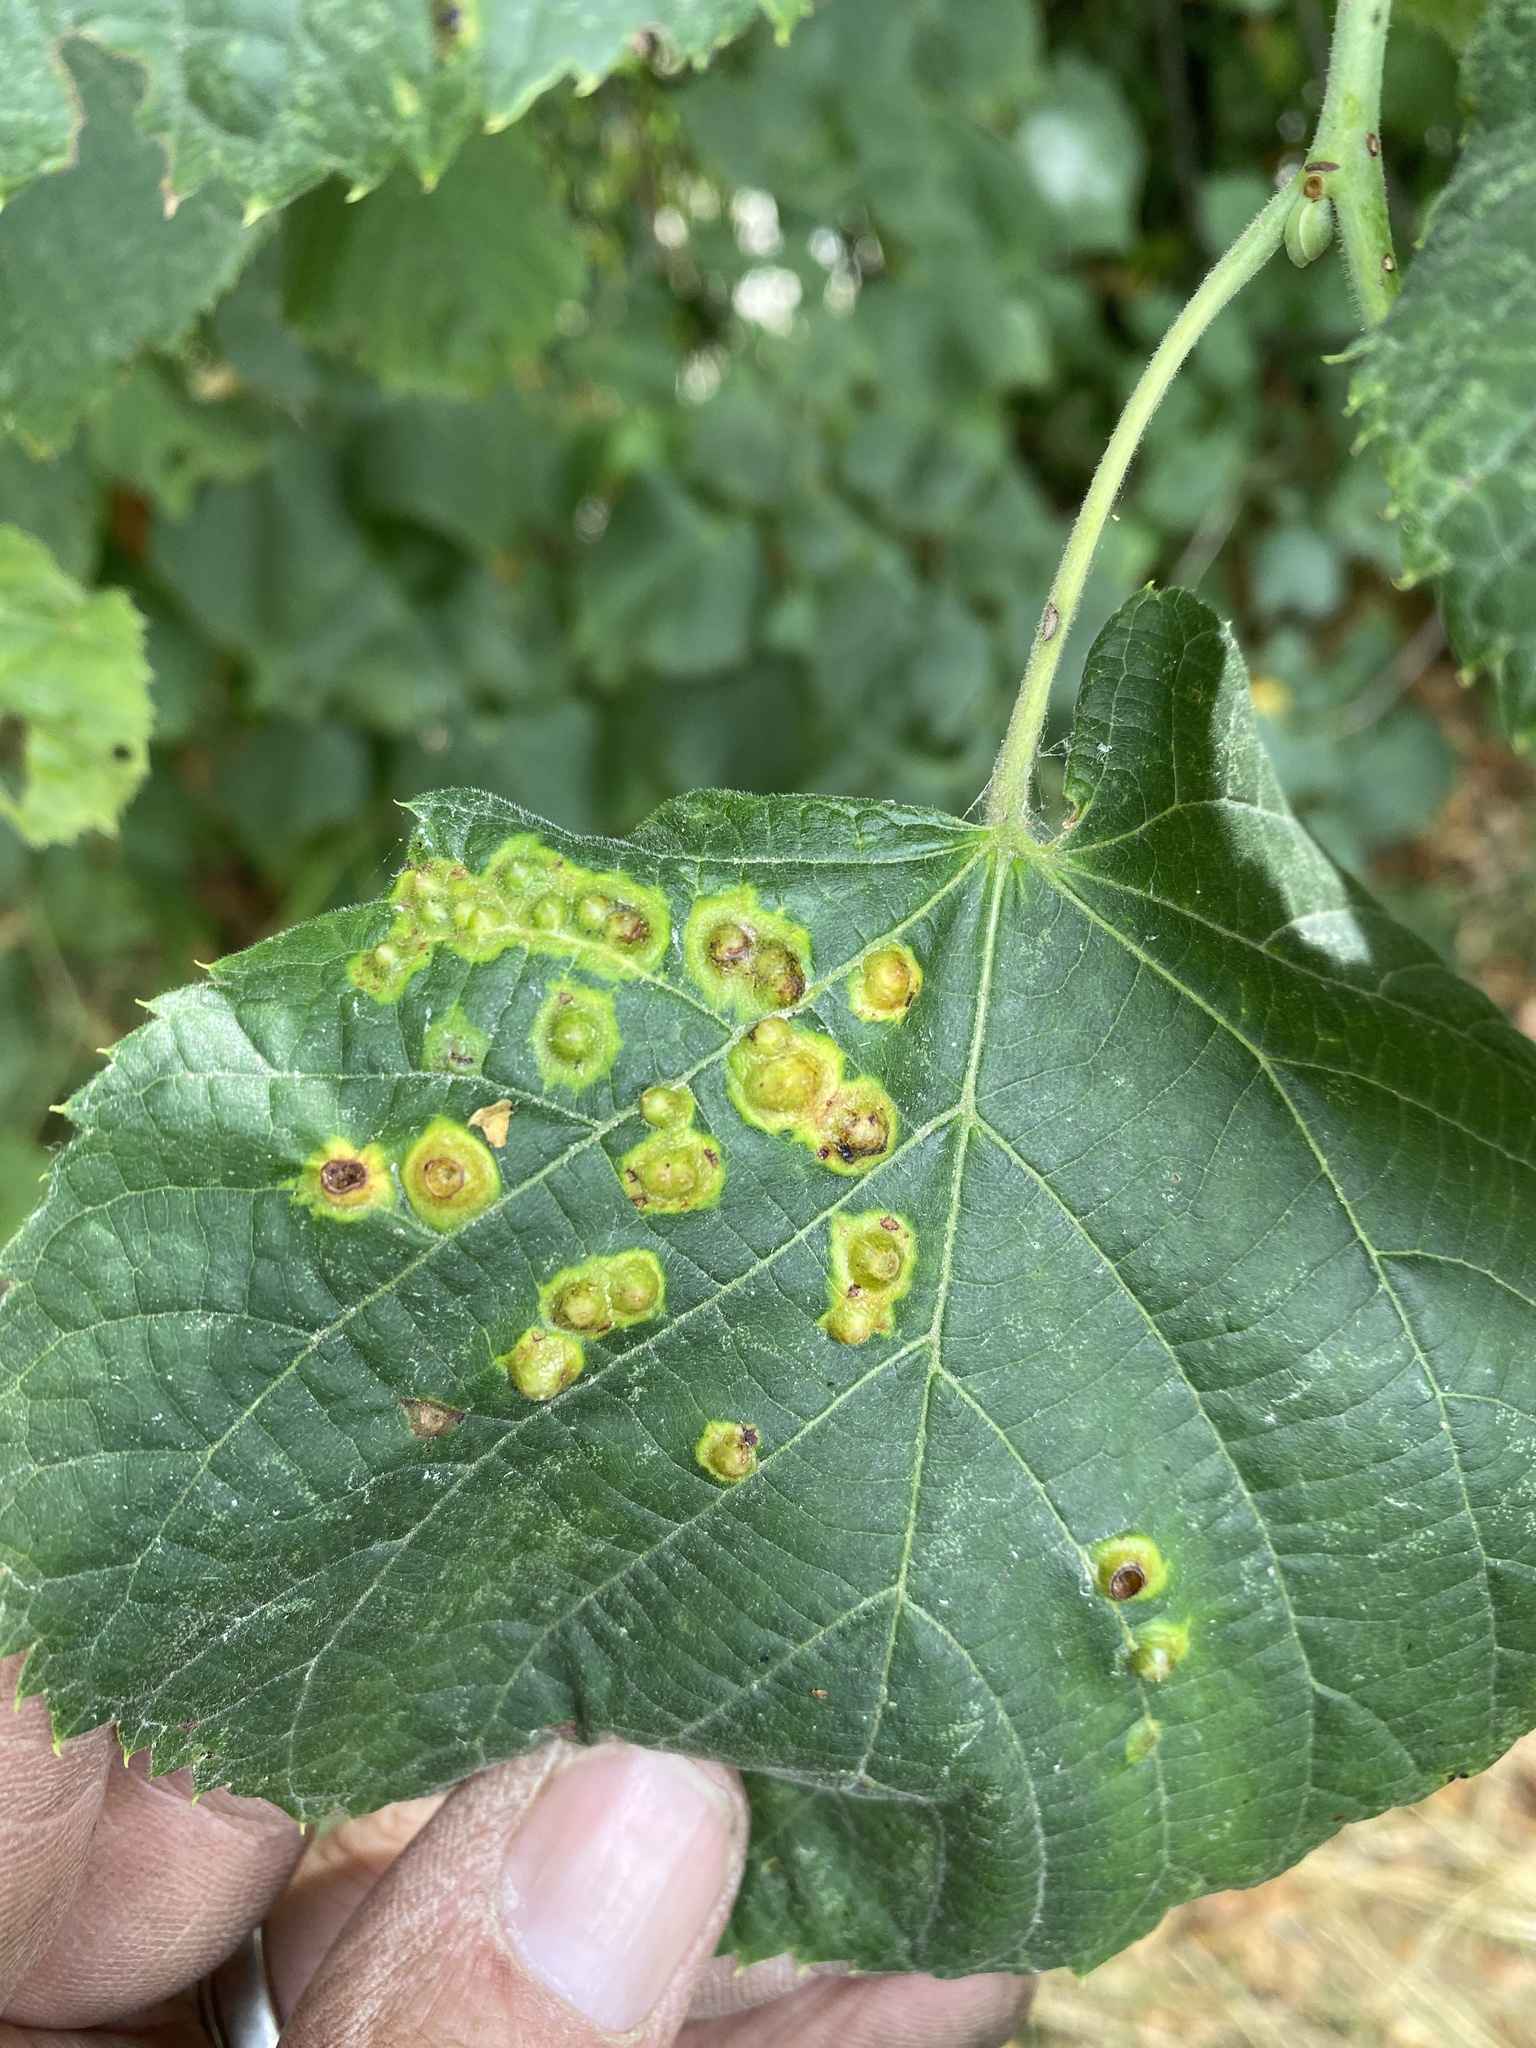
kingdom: Animalia
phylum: Arthropoda
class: Insecta
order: Diptera
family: Cecidomyiidae
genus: Didymomyia
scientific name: Didymomyia tiliacea
